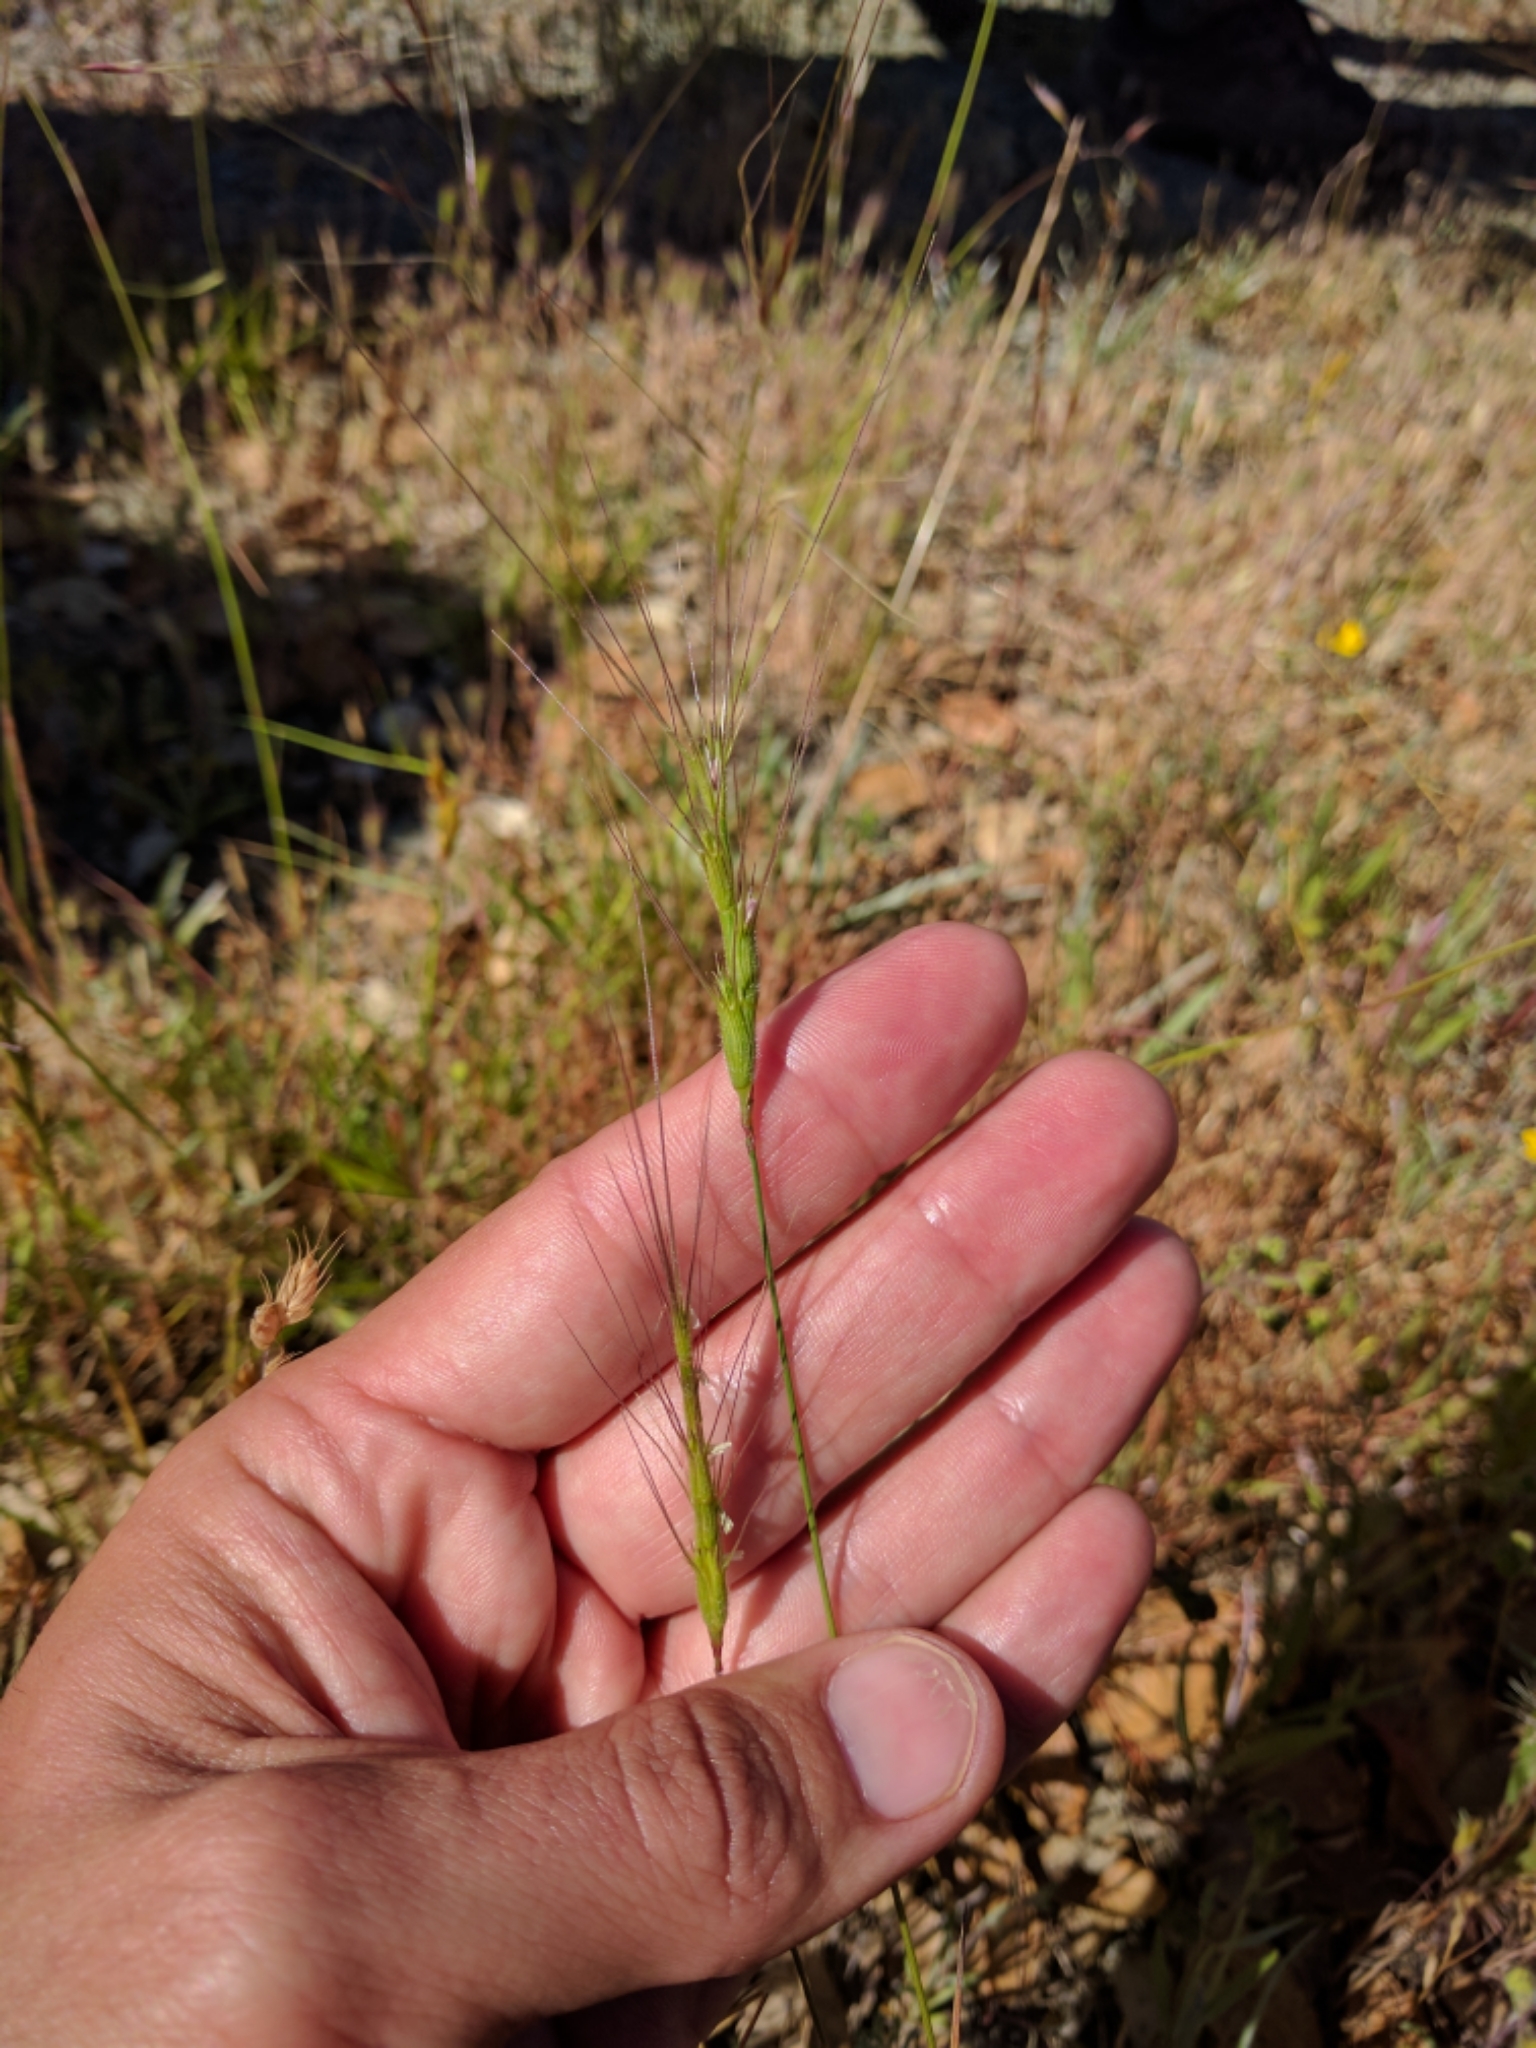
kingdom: Plantae
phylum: Tracheophyta
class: Liliopsida
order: Poales
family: Poaceae
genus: Aegilops
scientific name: Aegilops triuncialis
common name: Barb goat grass
